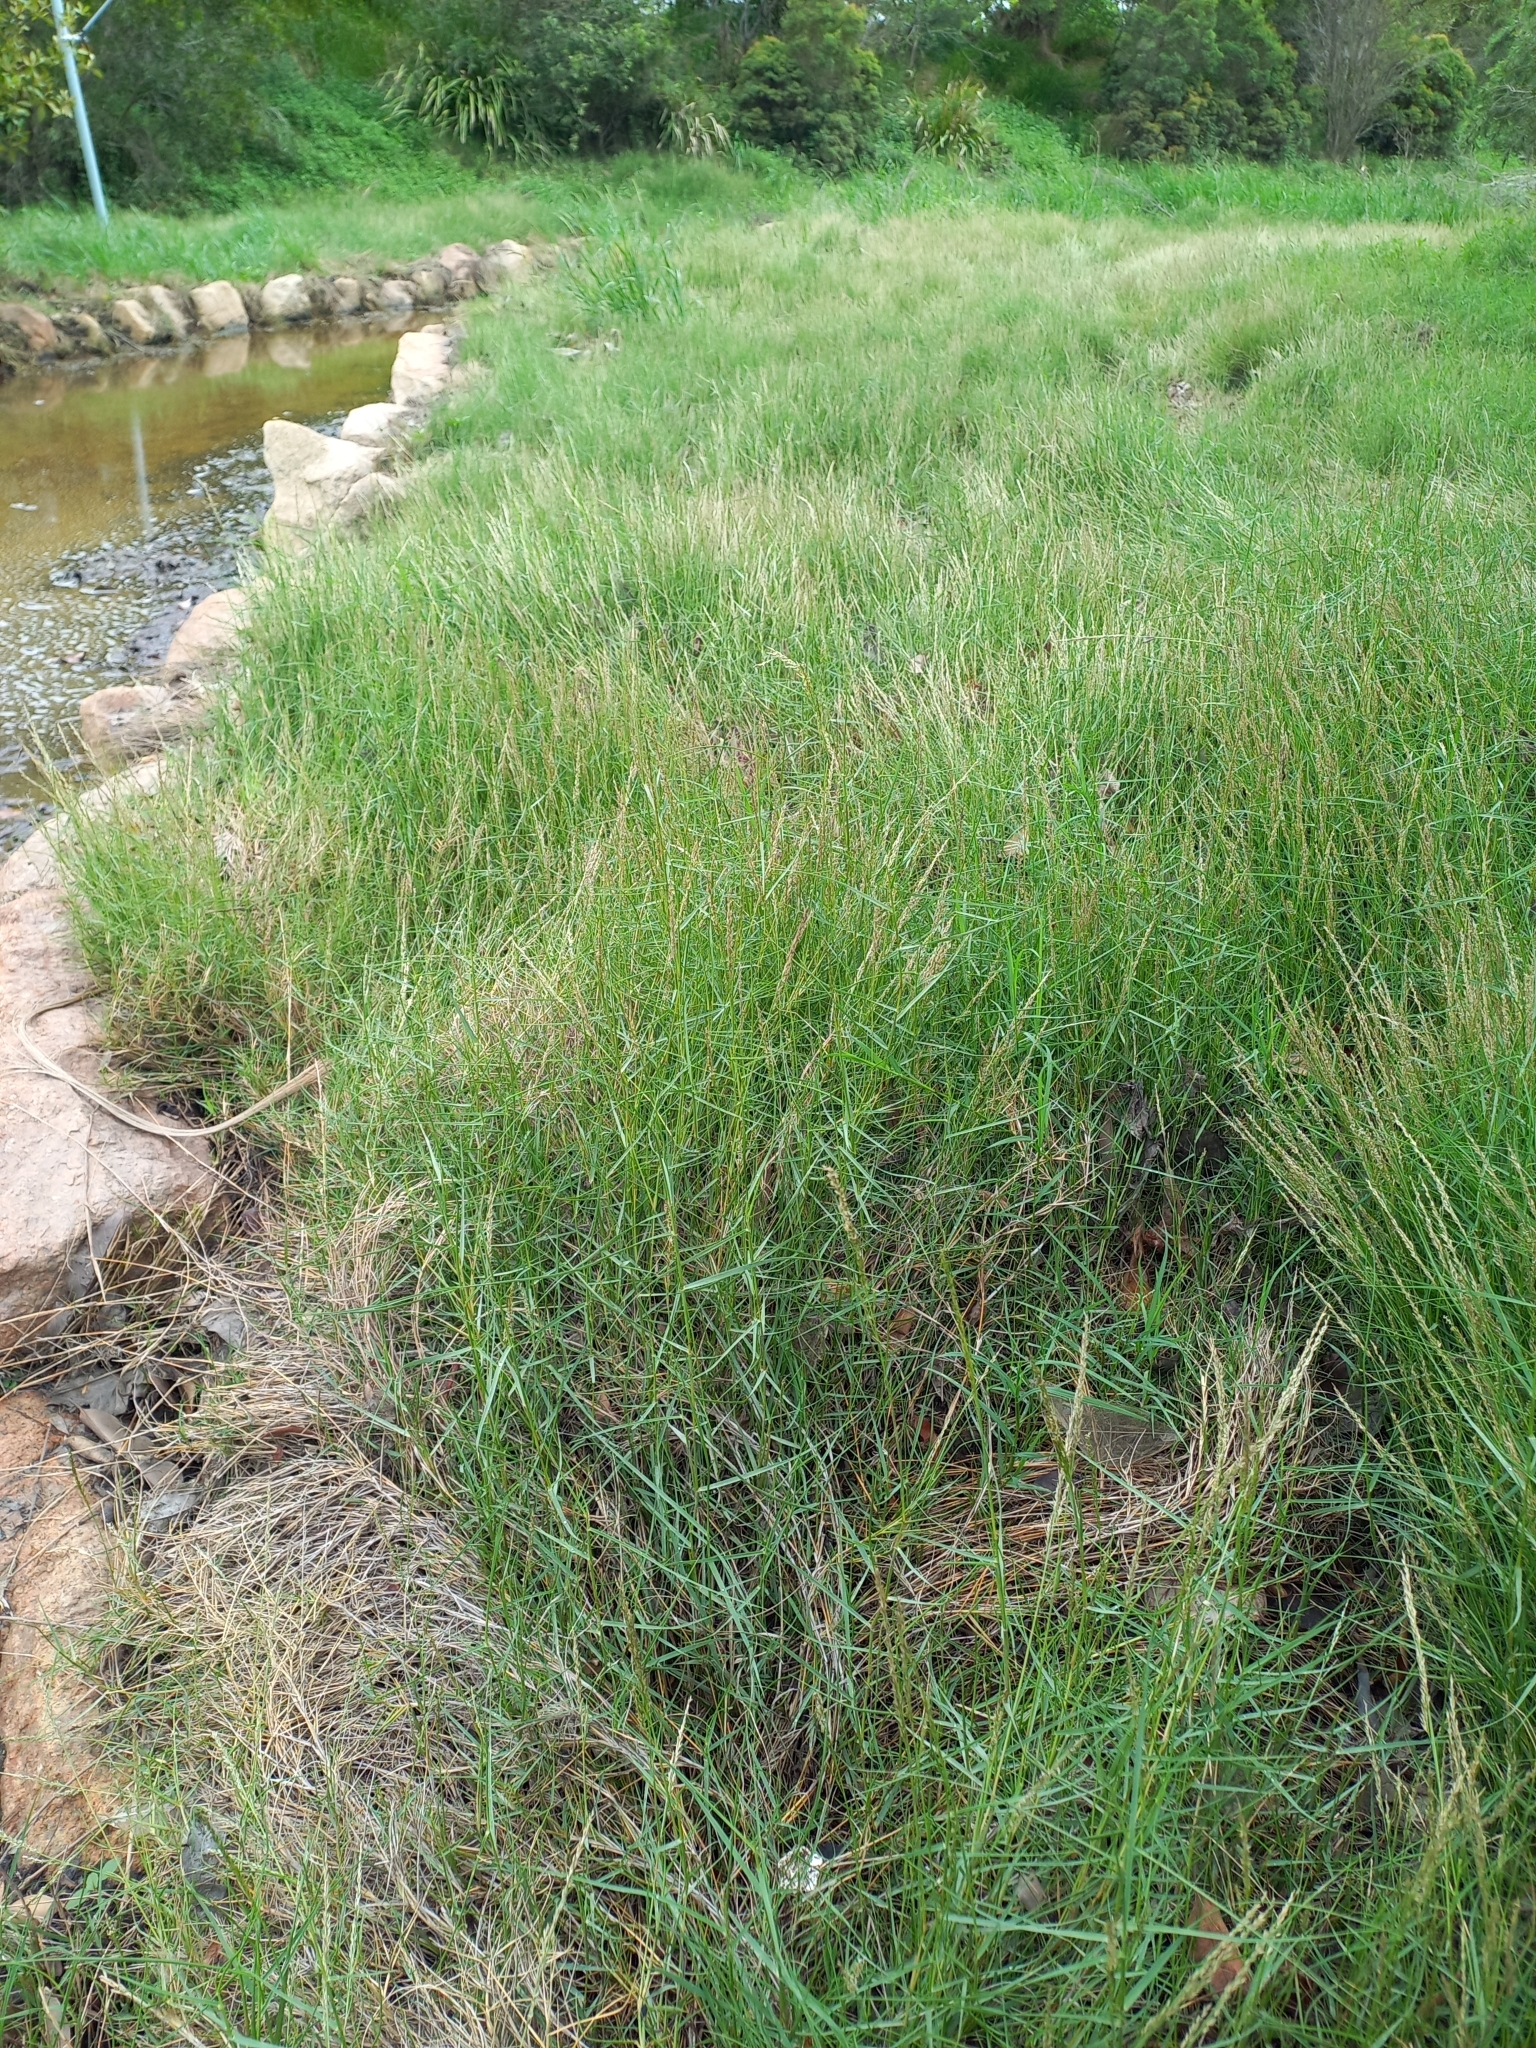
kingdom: Plantae
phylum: Tracheophyta
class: Liliopsida
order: Poales
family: Poaceae
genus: Sporobolus
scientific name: Sporobolus virginicus
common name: Beach dropseed
